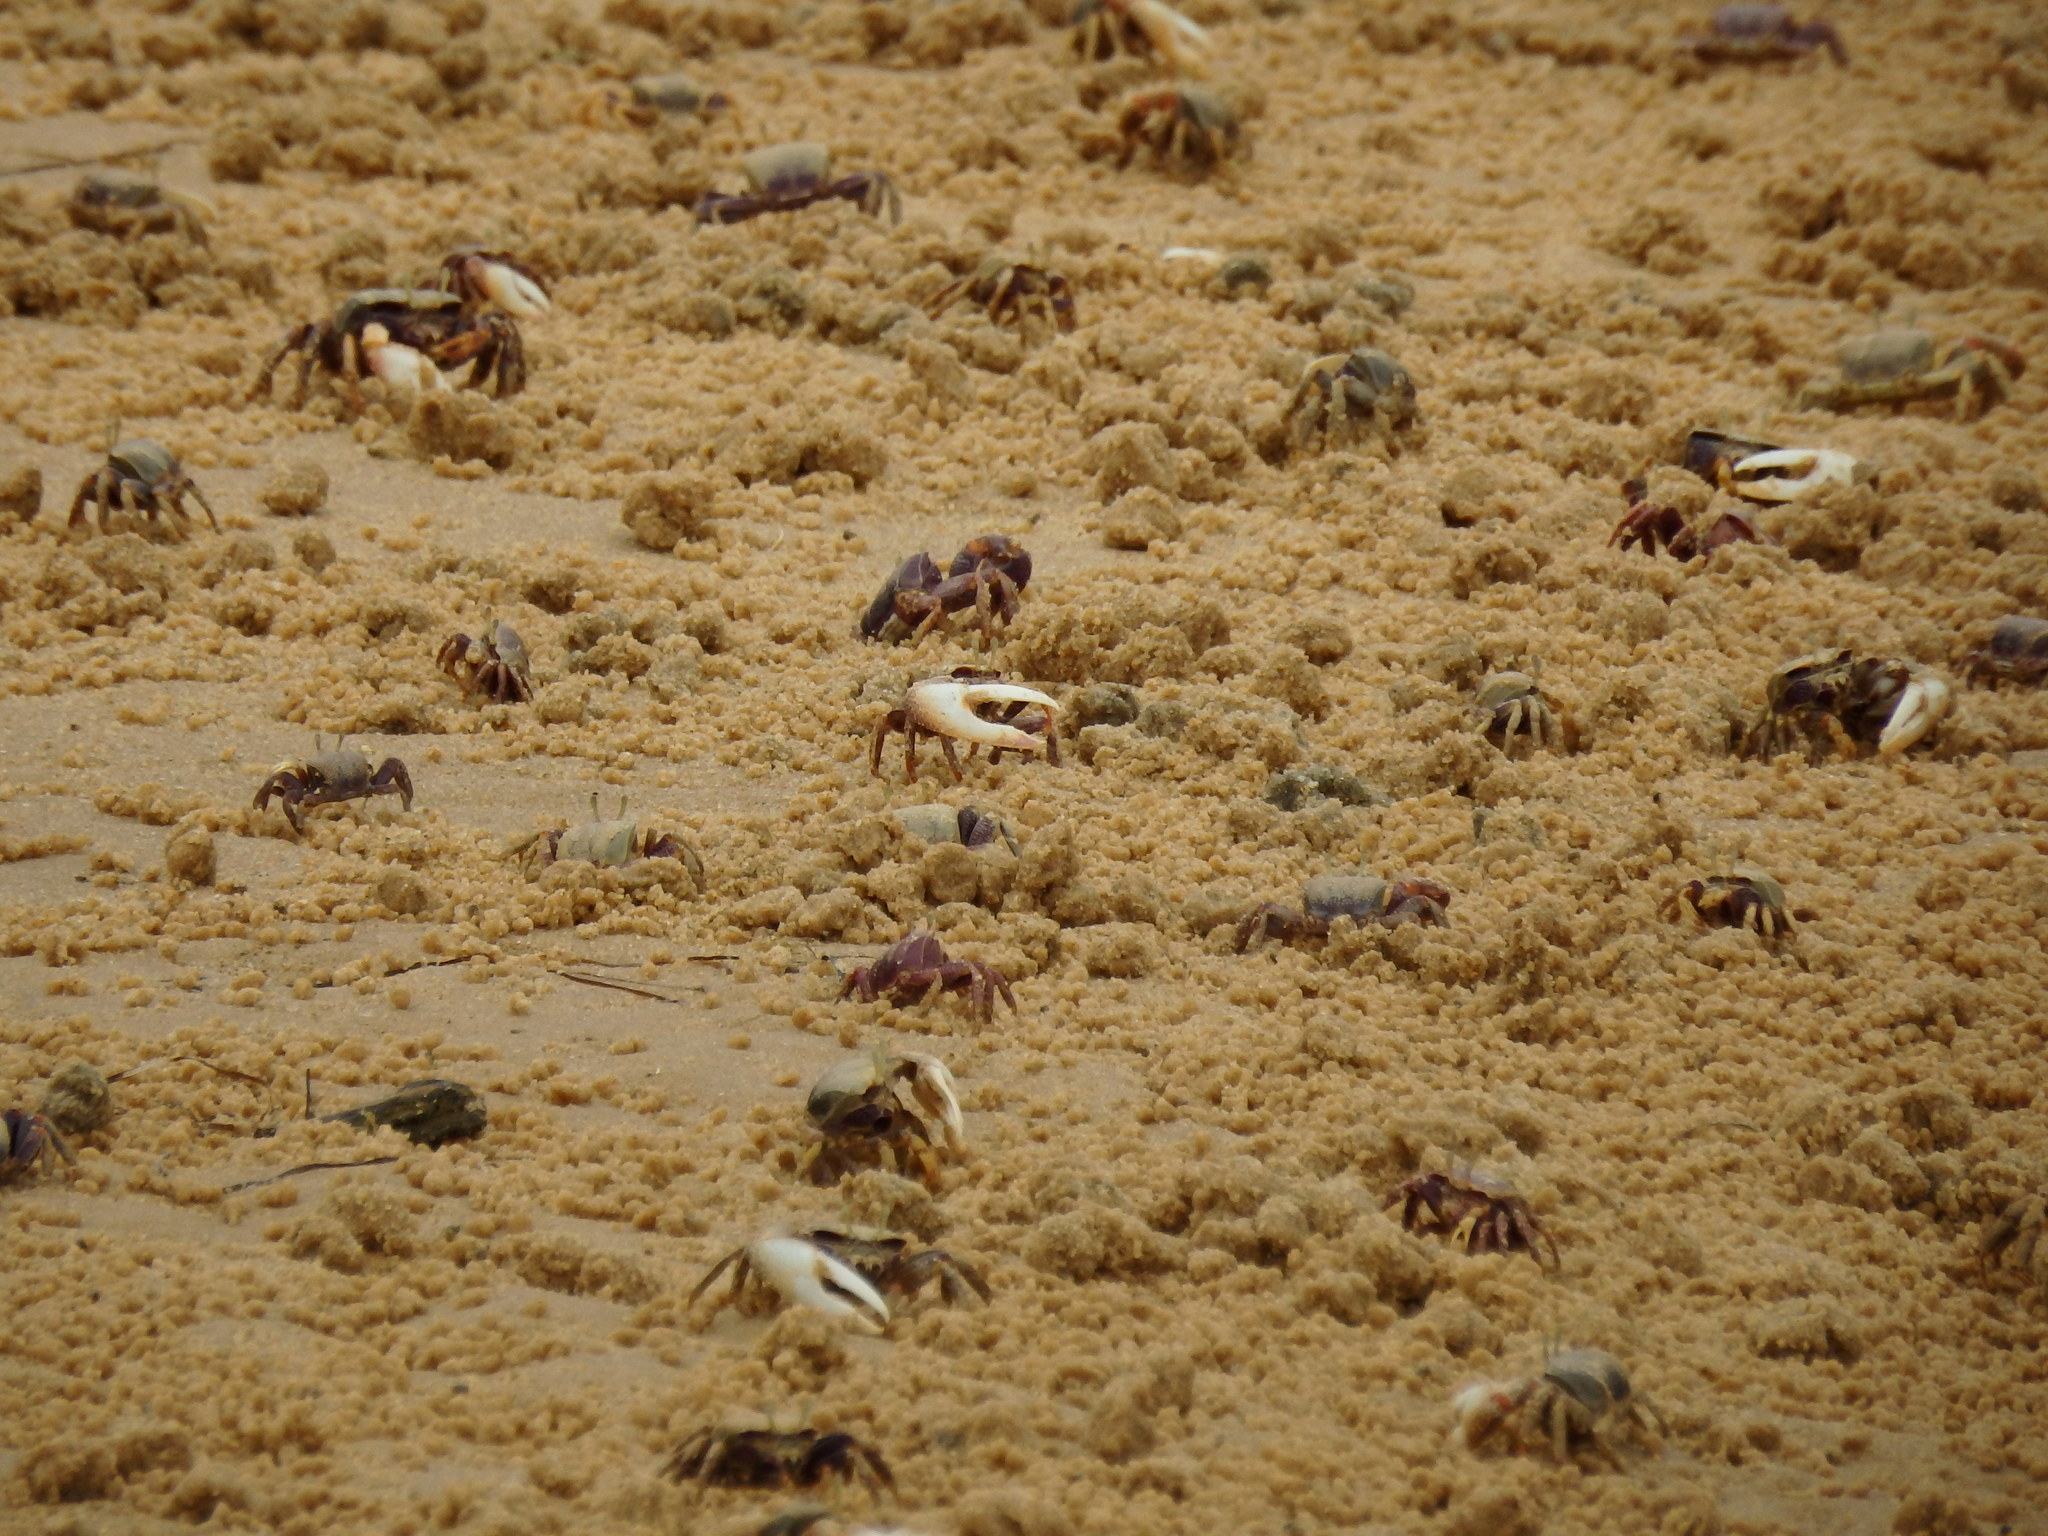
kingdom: Animalia
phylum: Arthropoda
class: Malacostraca
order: Decapoda
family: Ocypodidae
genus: Afruca
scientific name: Afruca tangeri
